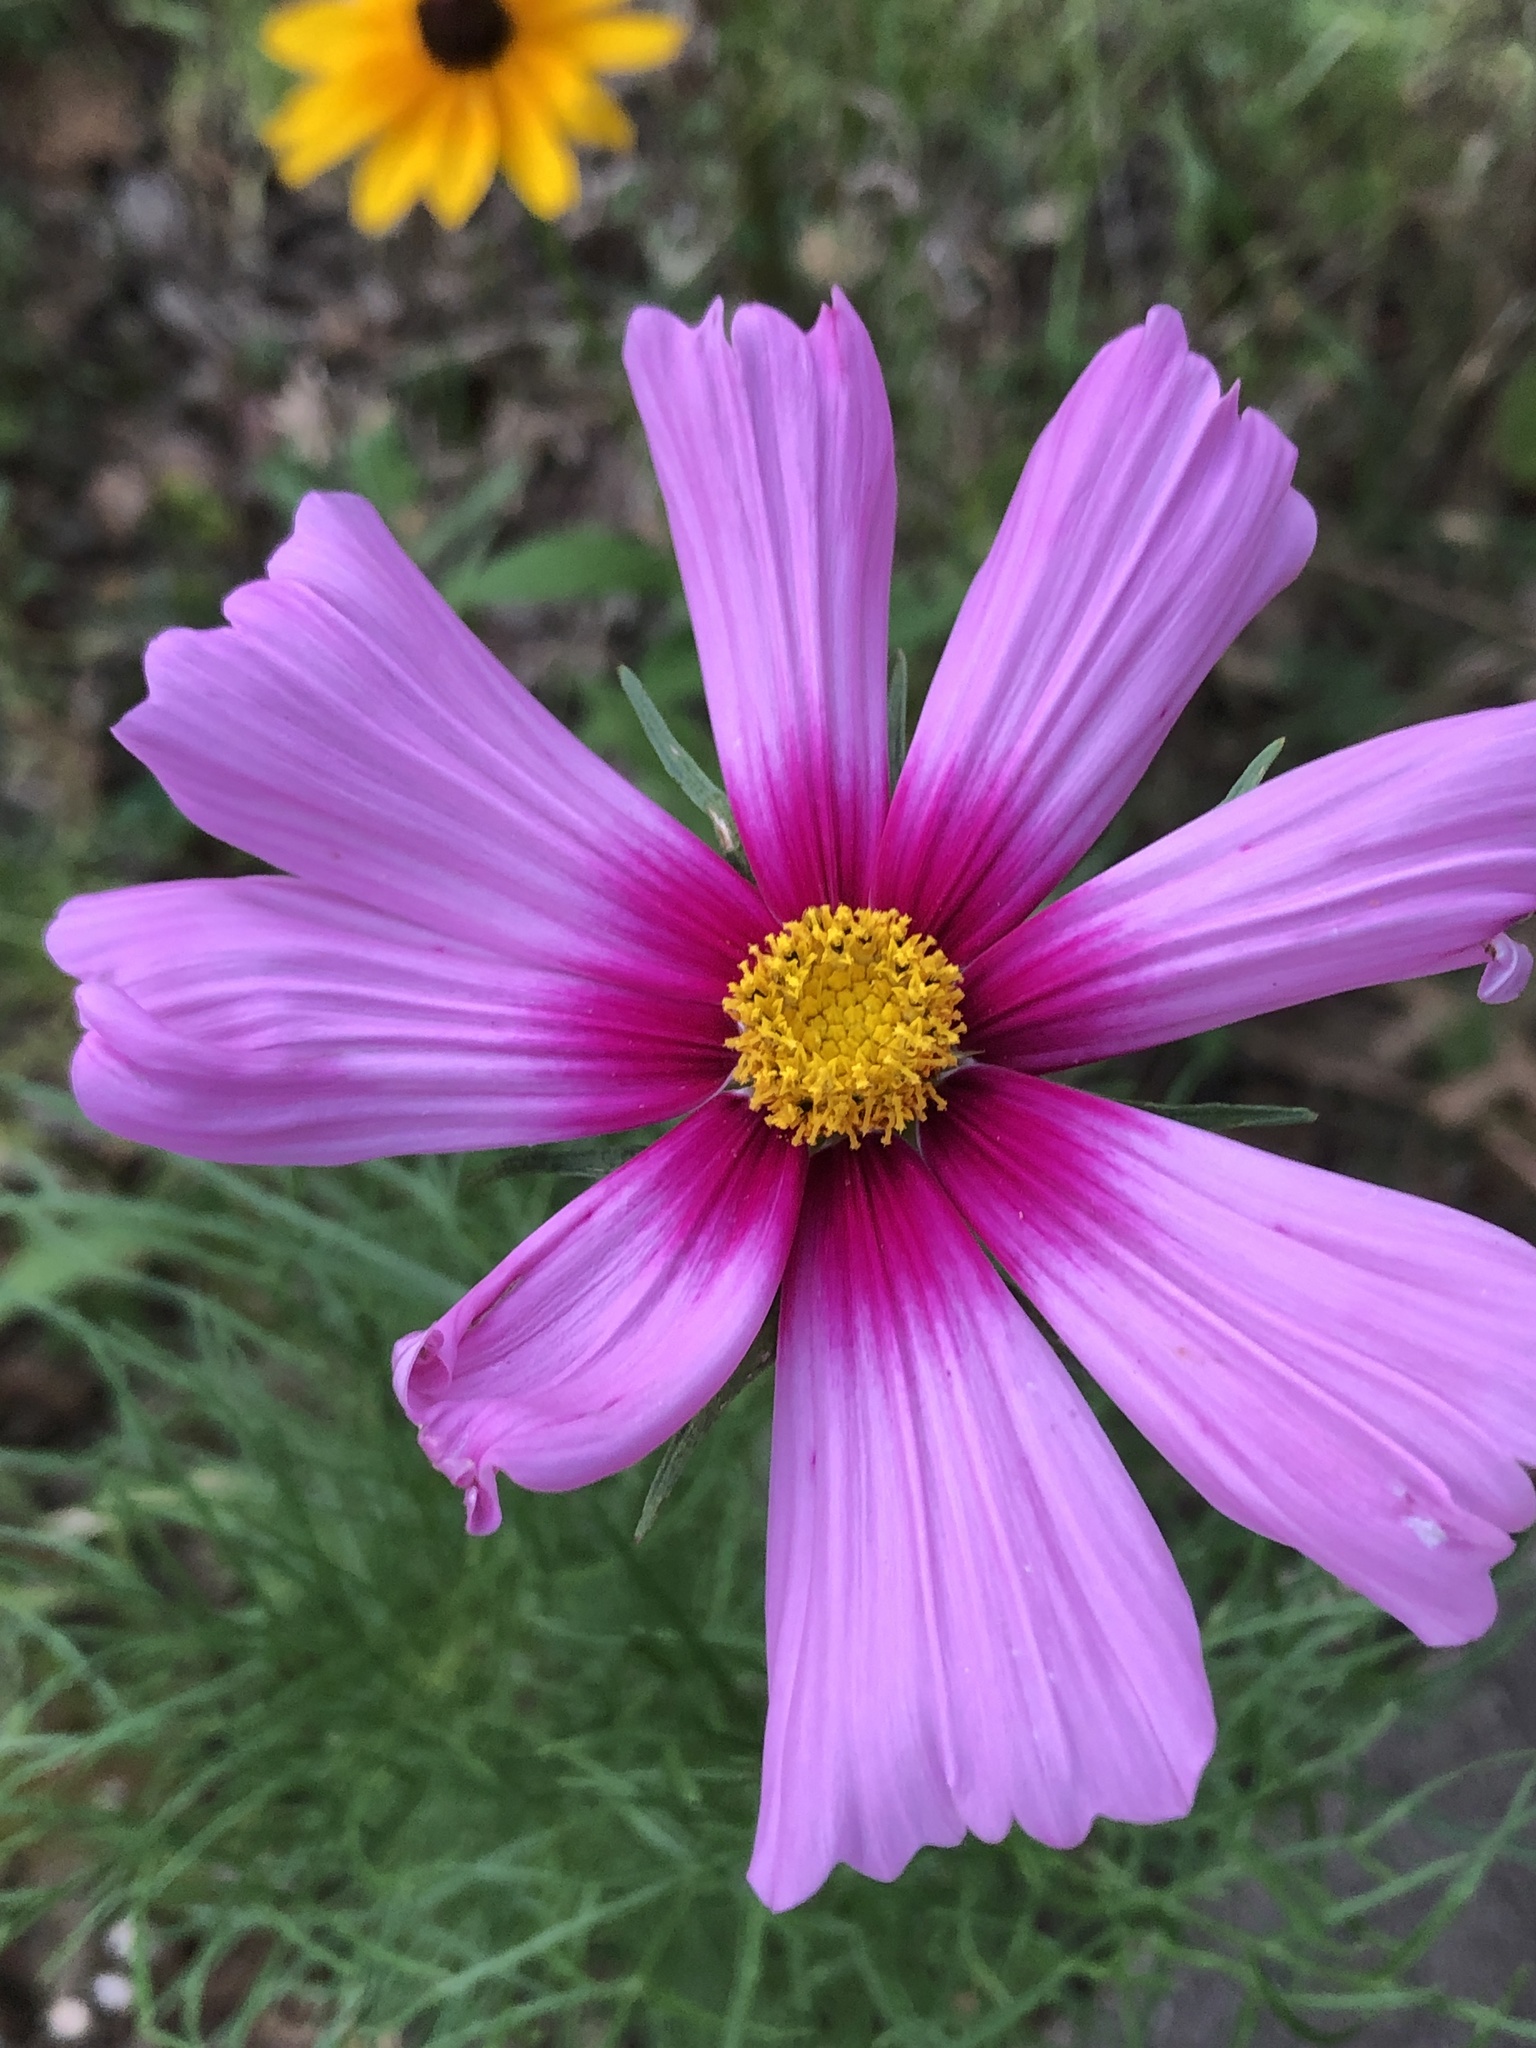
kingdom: Plantae
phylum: Tracheophyta
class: Magnoliopsida
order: Asterales
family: Asteraceae
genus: Cosmos
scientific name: Cosmos bipinnatus
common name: Garden cosmos
